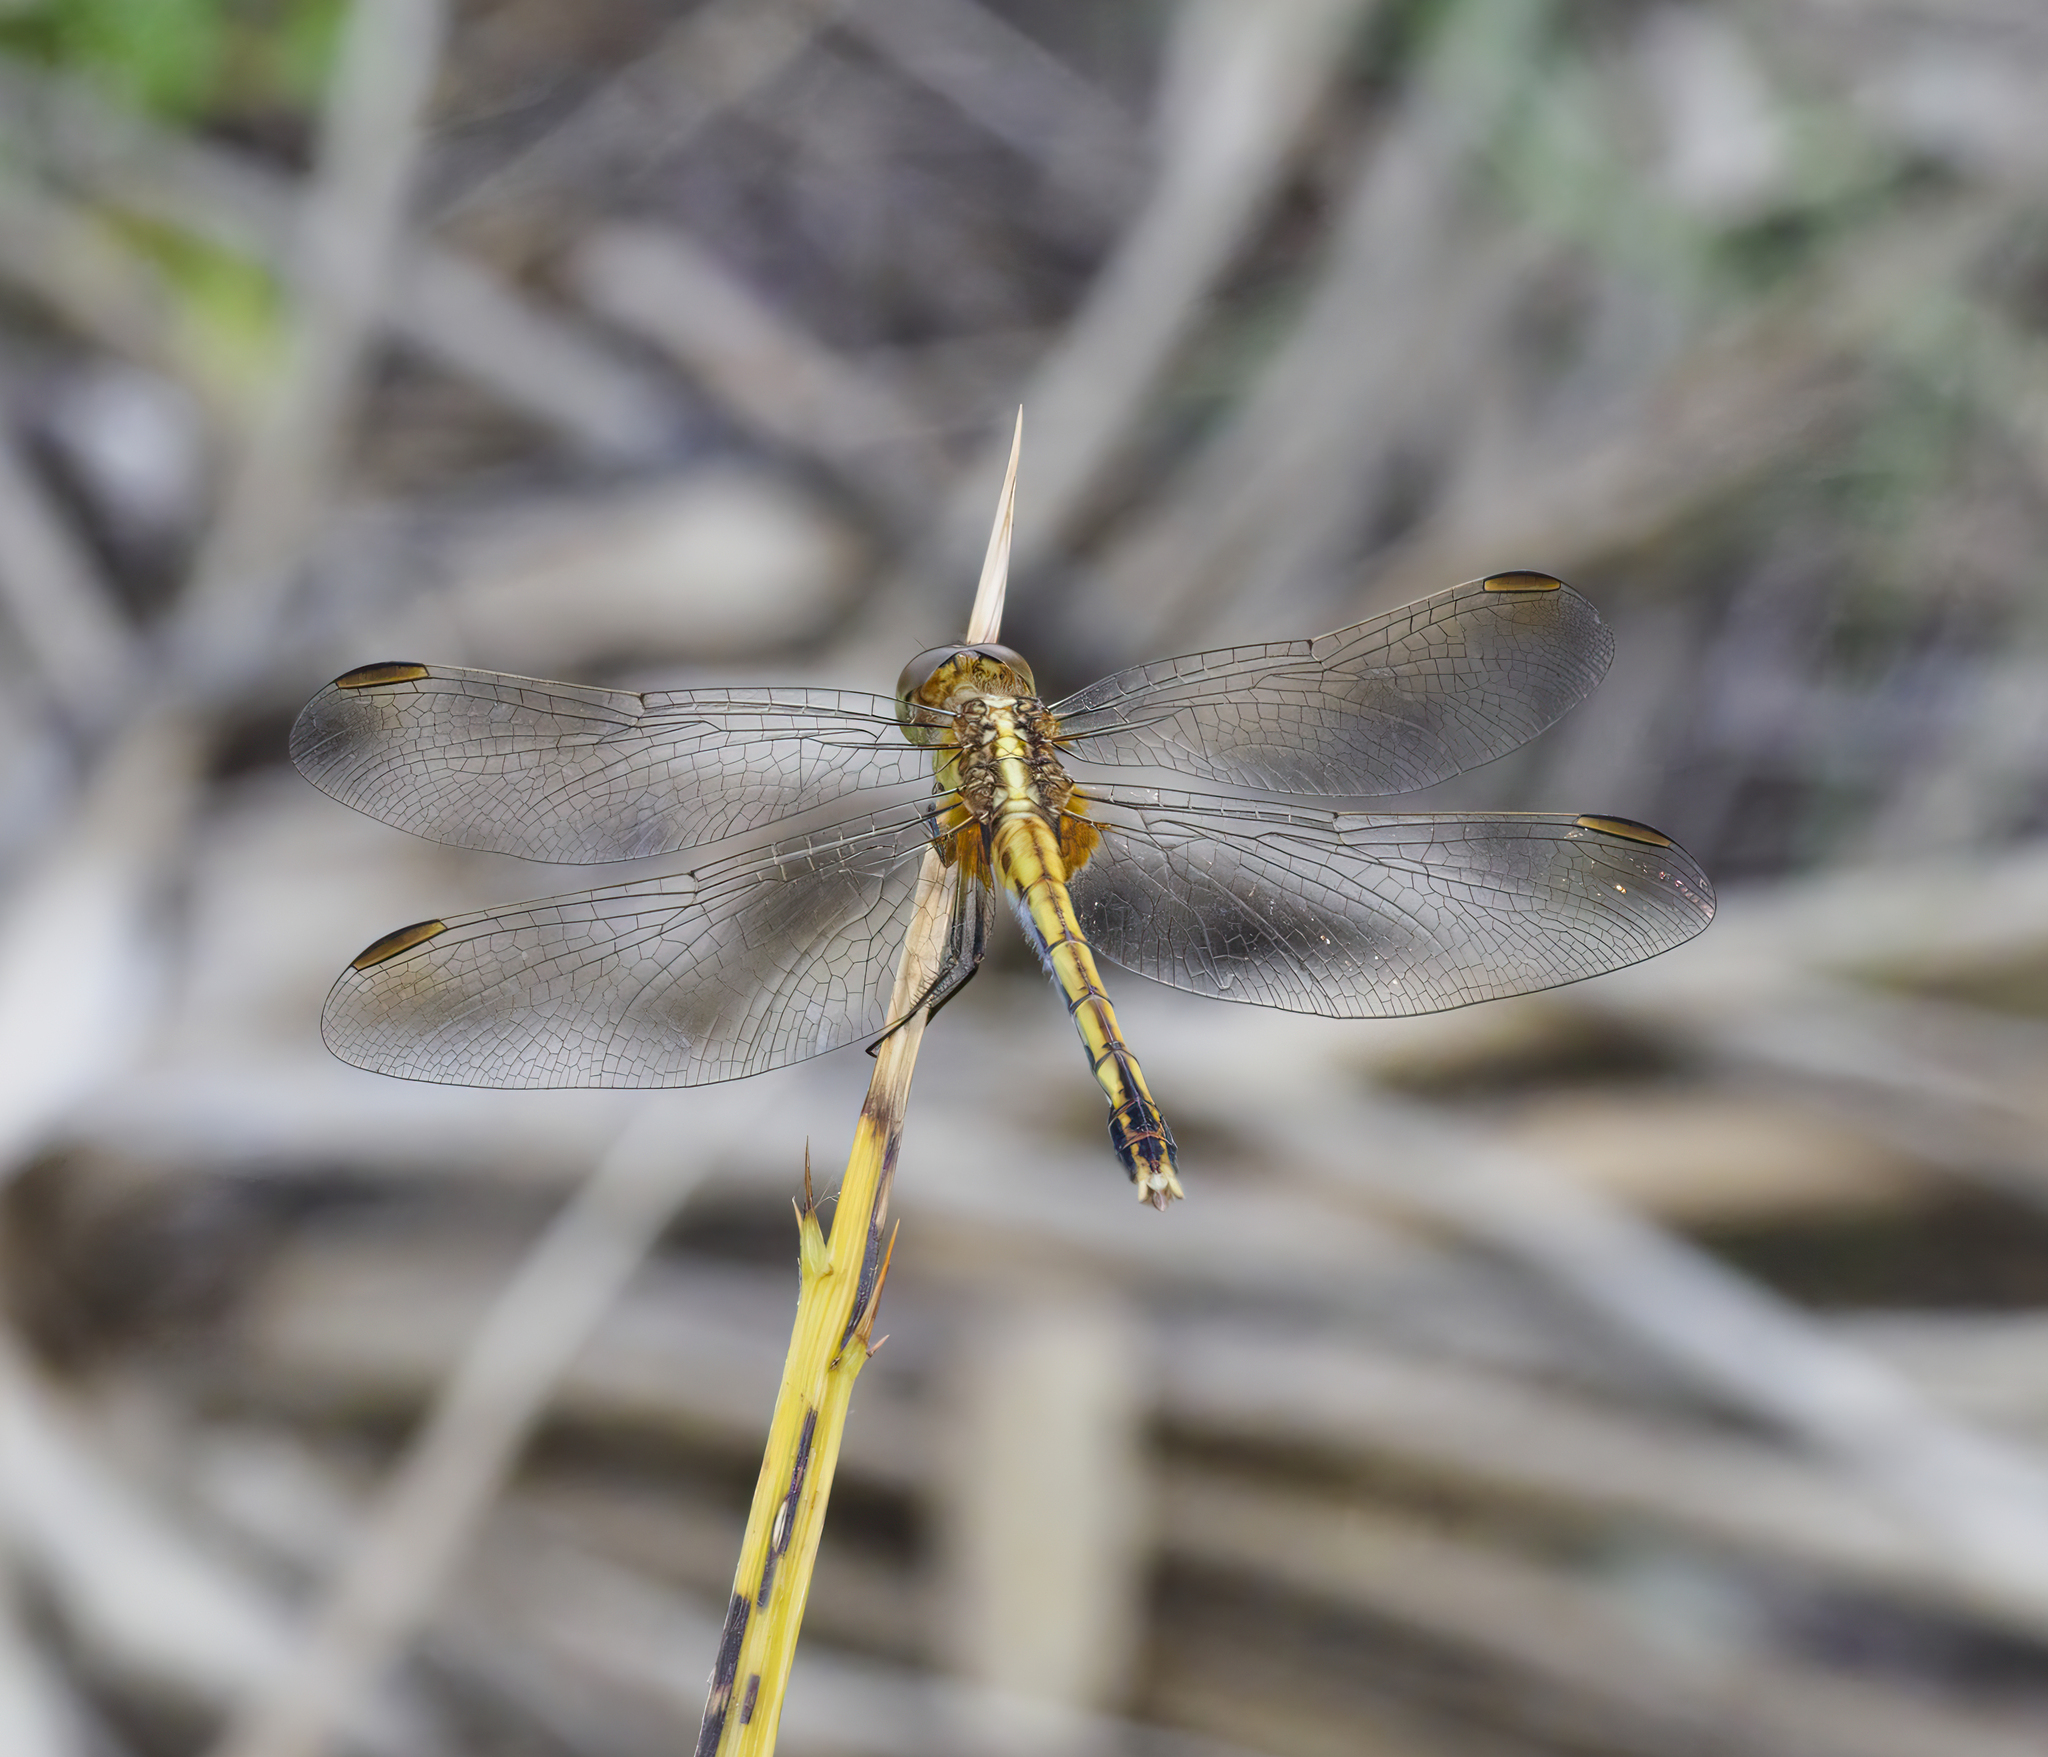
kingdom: Animalia
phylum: Arthropoda
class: Insecta
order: Odonata
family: Libellulidae
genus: Erythrodiplax
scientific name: Erythrodiplax nigricans
